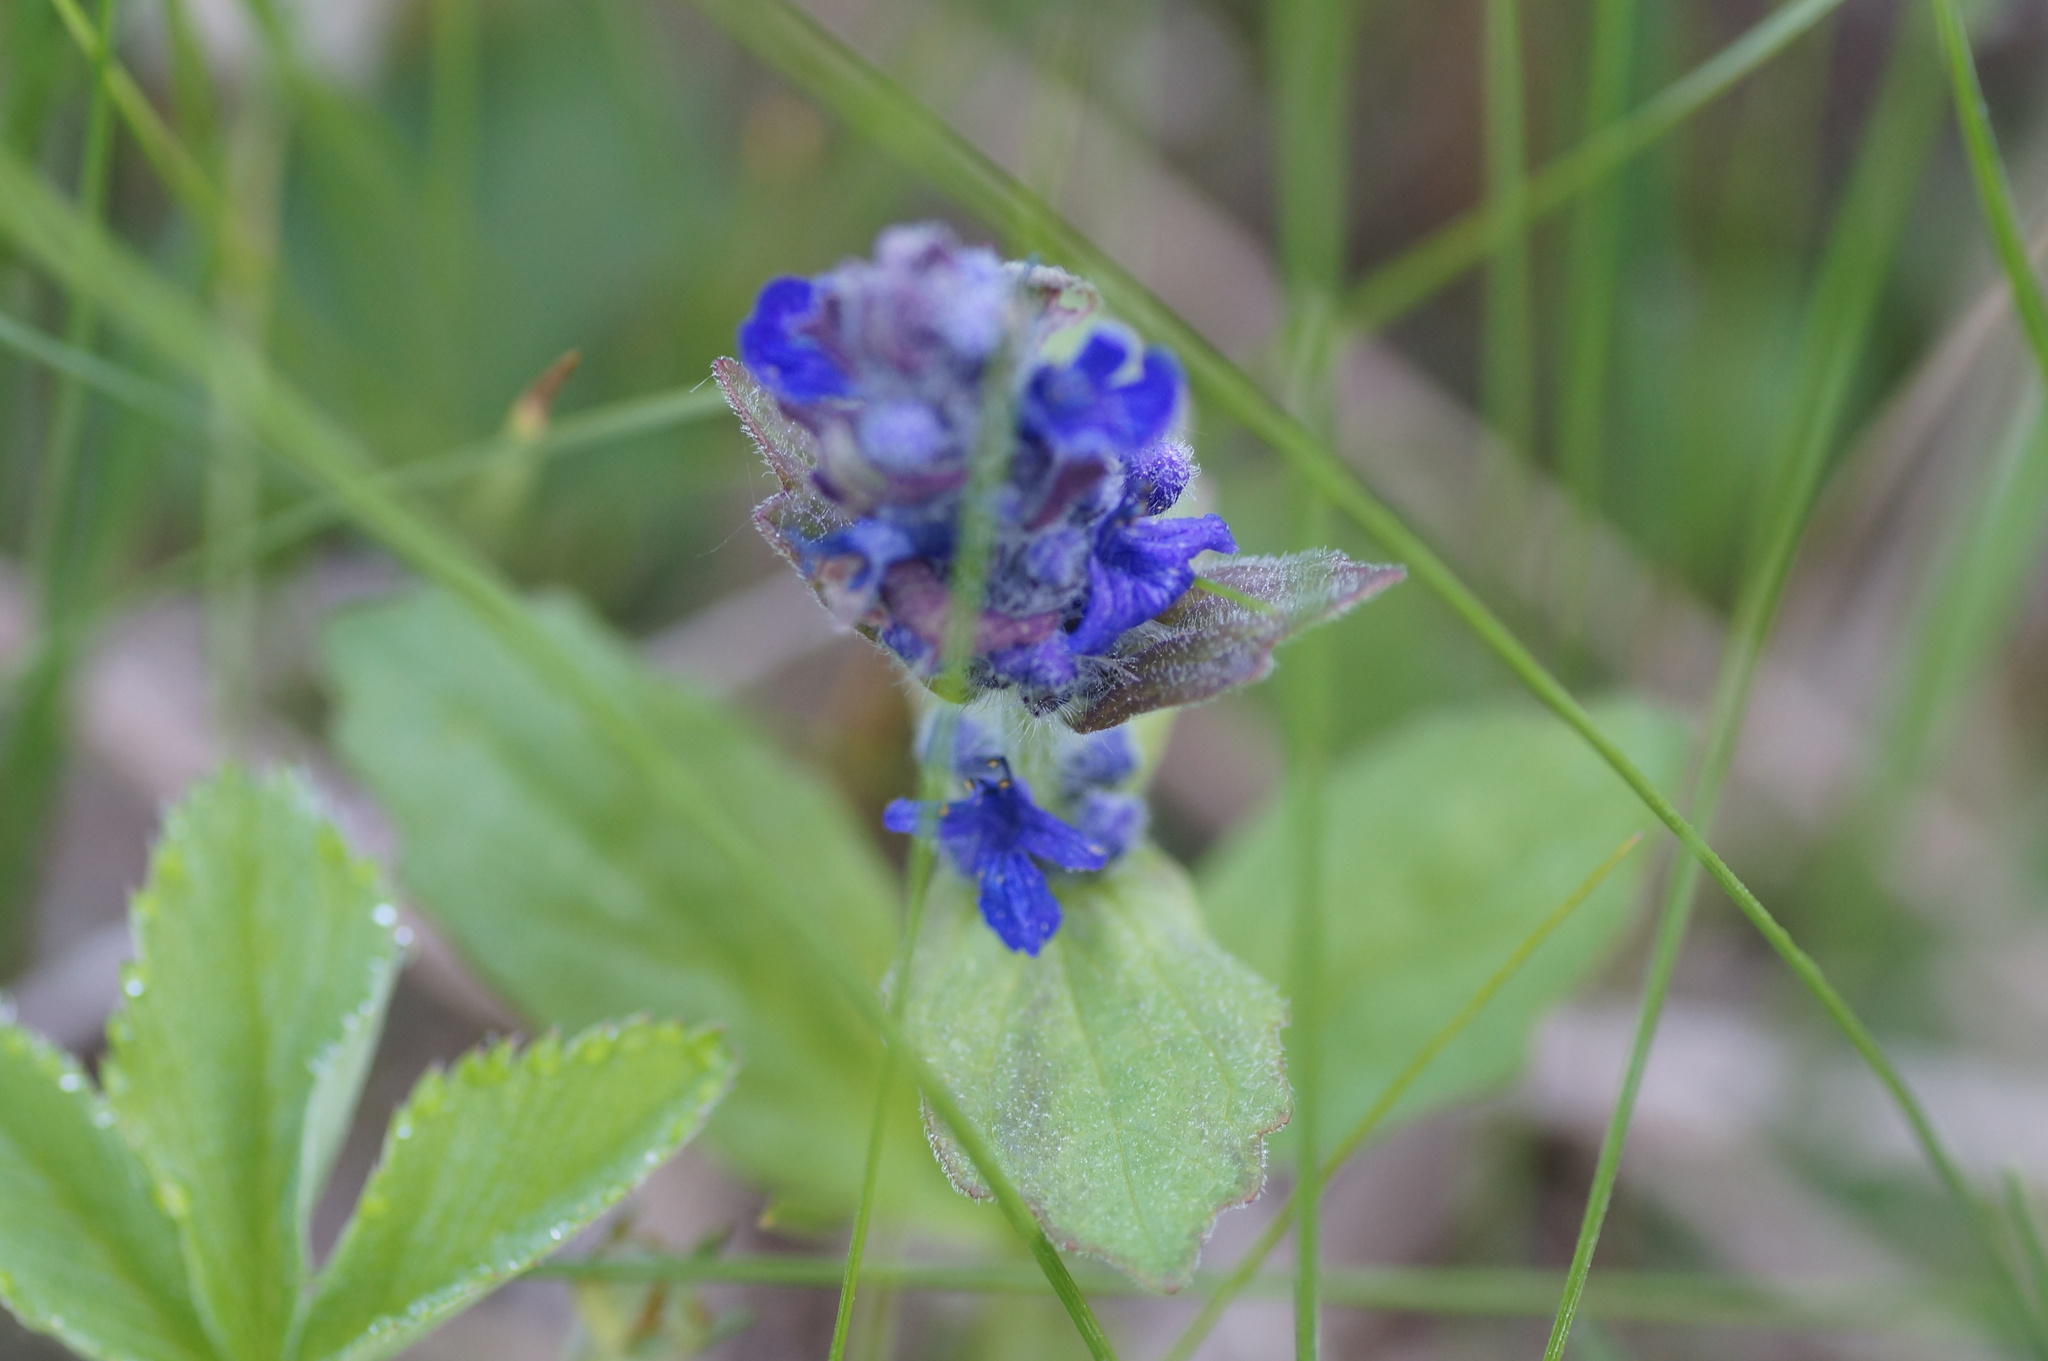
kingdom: Plantae
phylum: Tracheophyta
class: Magnoliopsida
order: Lamiales
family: Lamiaceae
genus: Ajuga
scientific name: Ajuga genevensis
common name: Blue bugle
